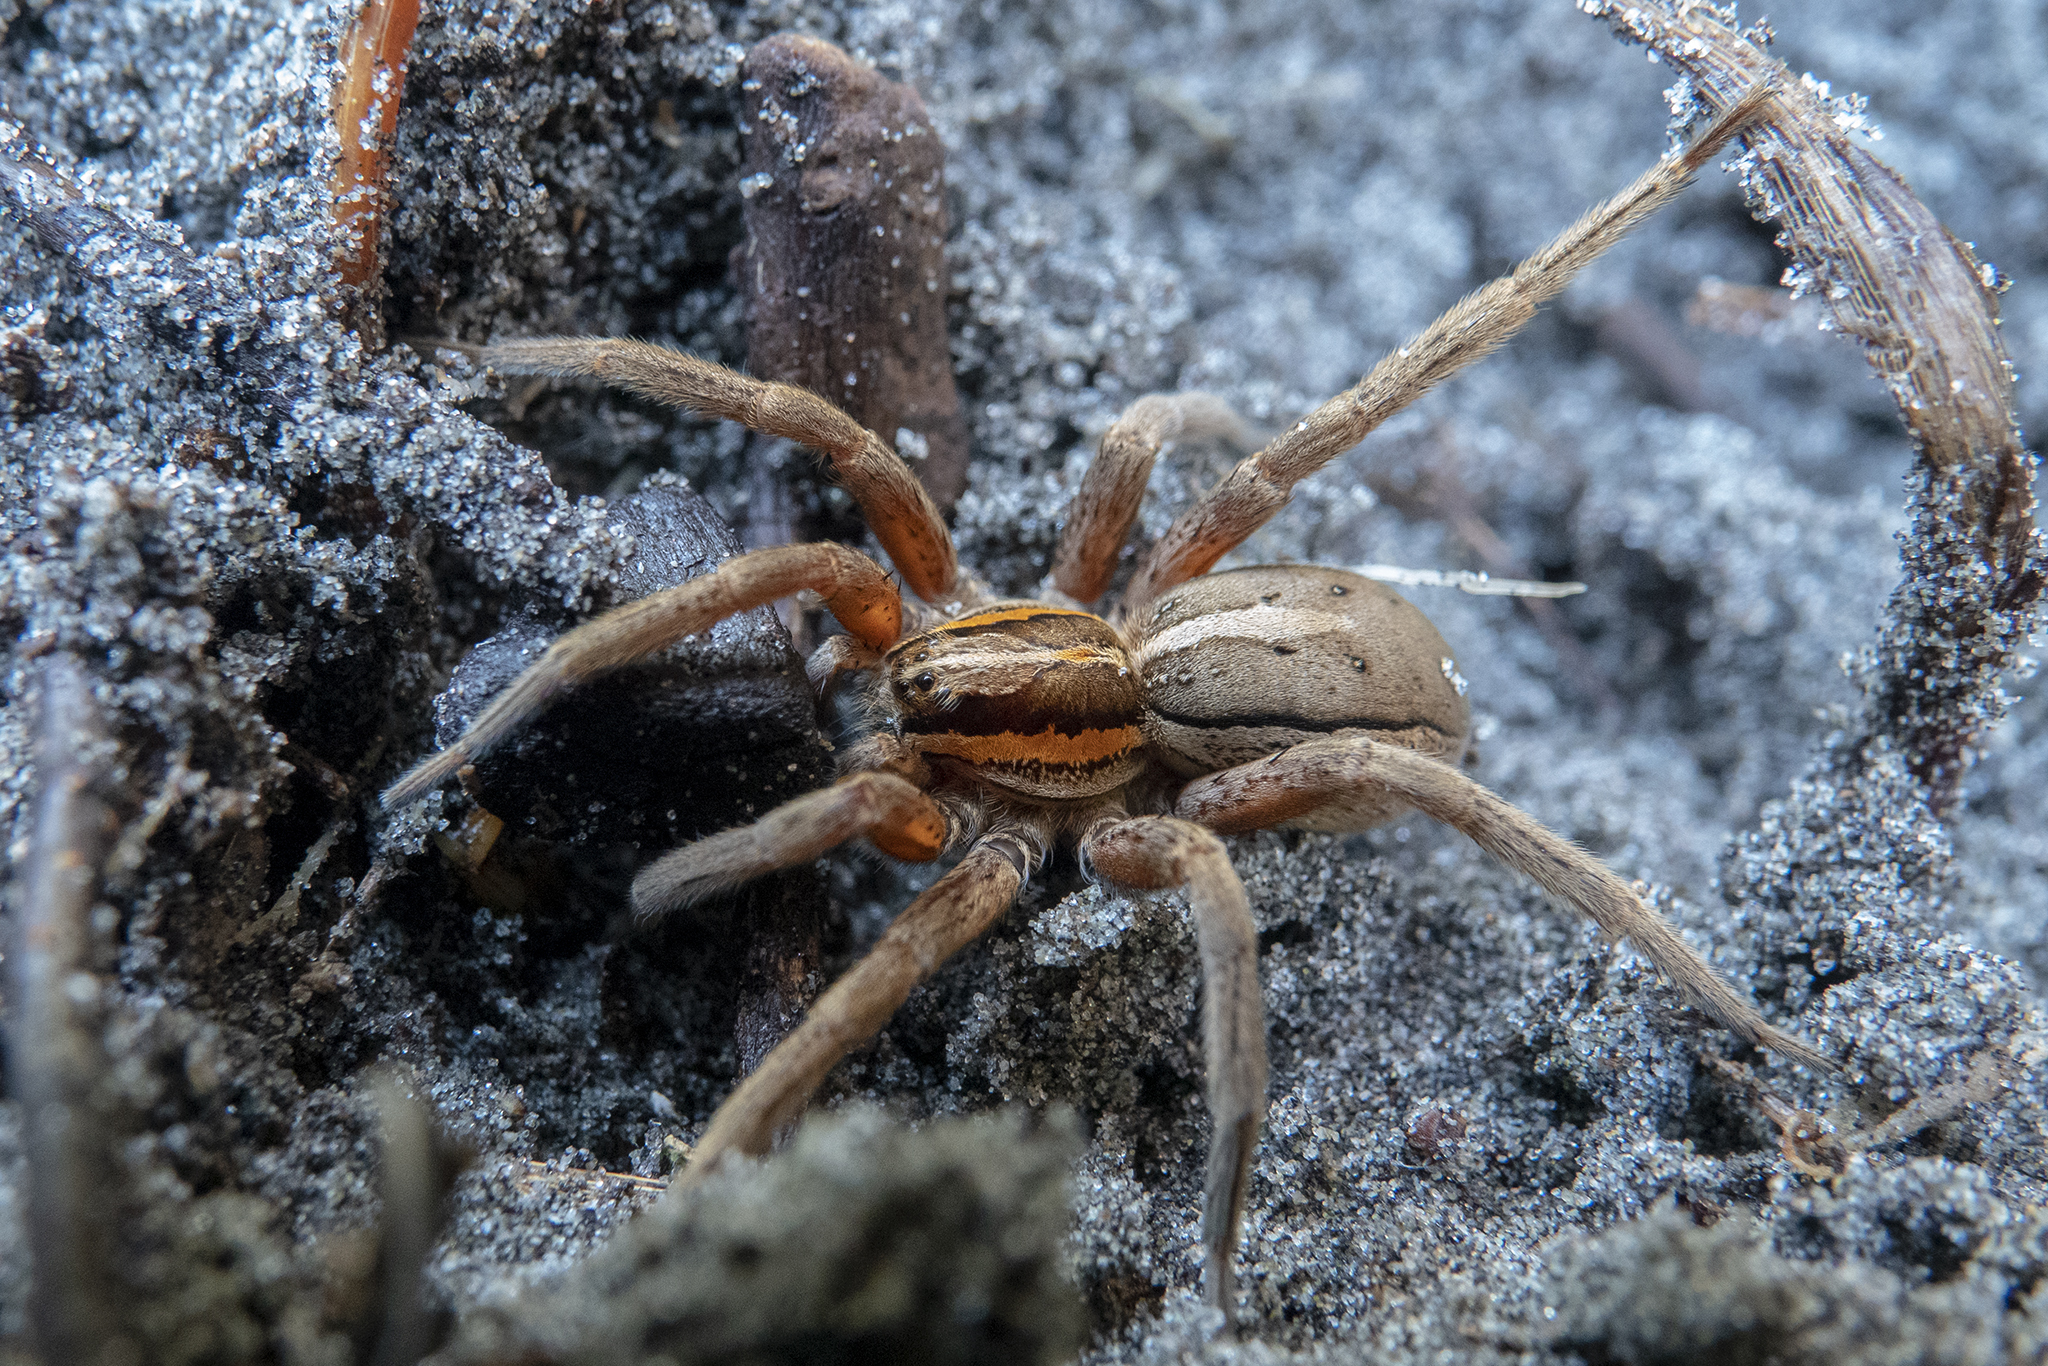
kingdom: Animalia
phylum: Arthropoda
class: Arachnida
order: Araneae
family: Pisauridae
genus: Dolomedes
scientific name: Dolomedes minor
